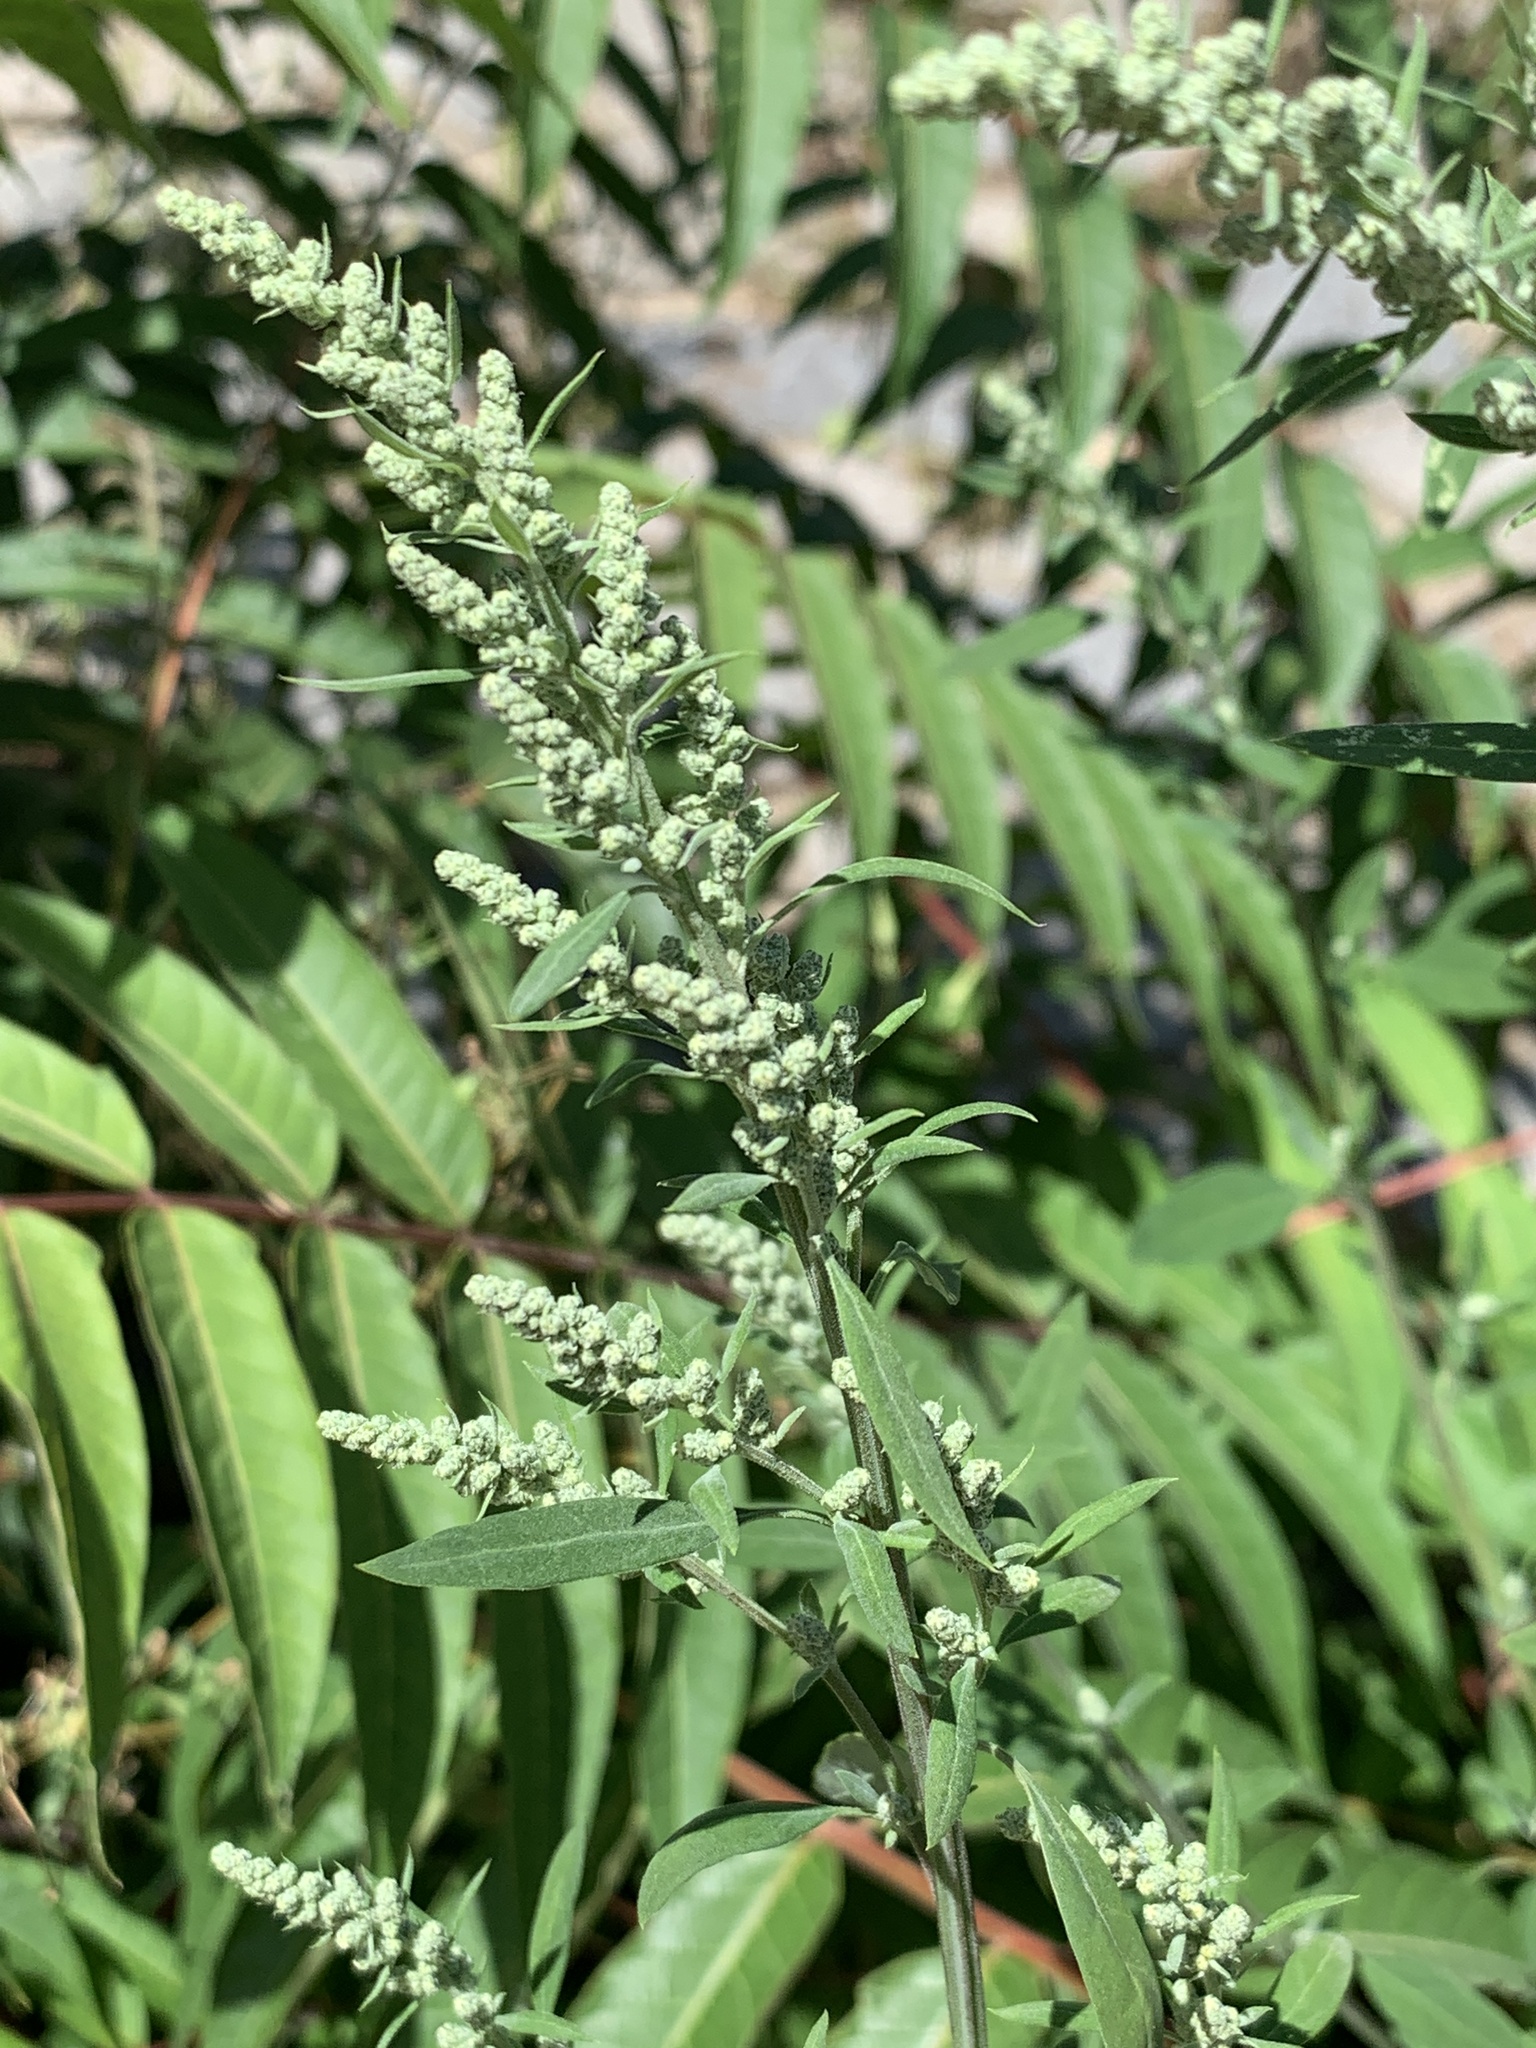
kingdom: Plantae
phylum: Tracheophyta
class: Magnoliopsida
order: Caryophyllales
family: Amaranthaceae
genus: Chenopodium
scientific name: Chenopodium album
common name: Fat-hen
